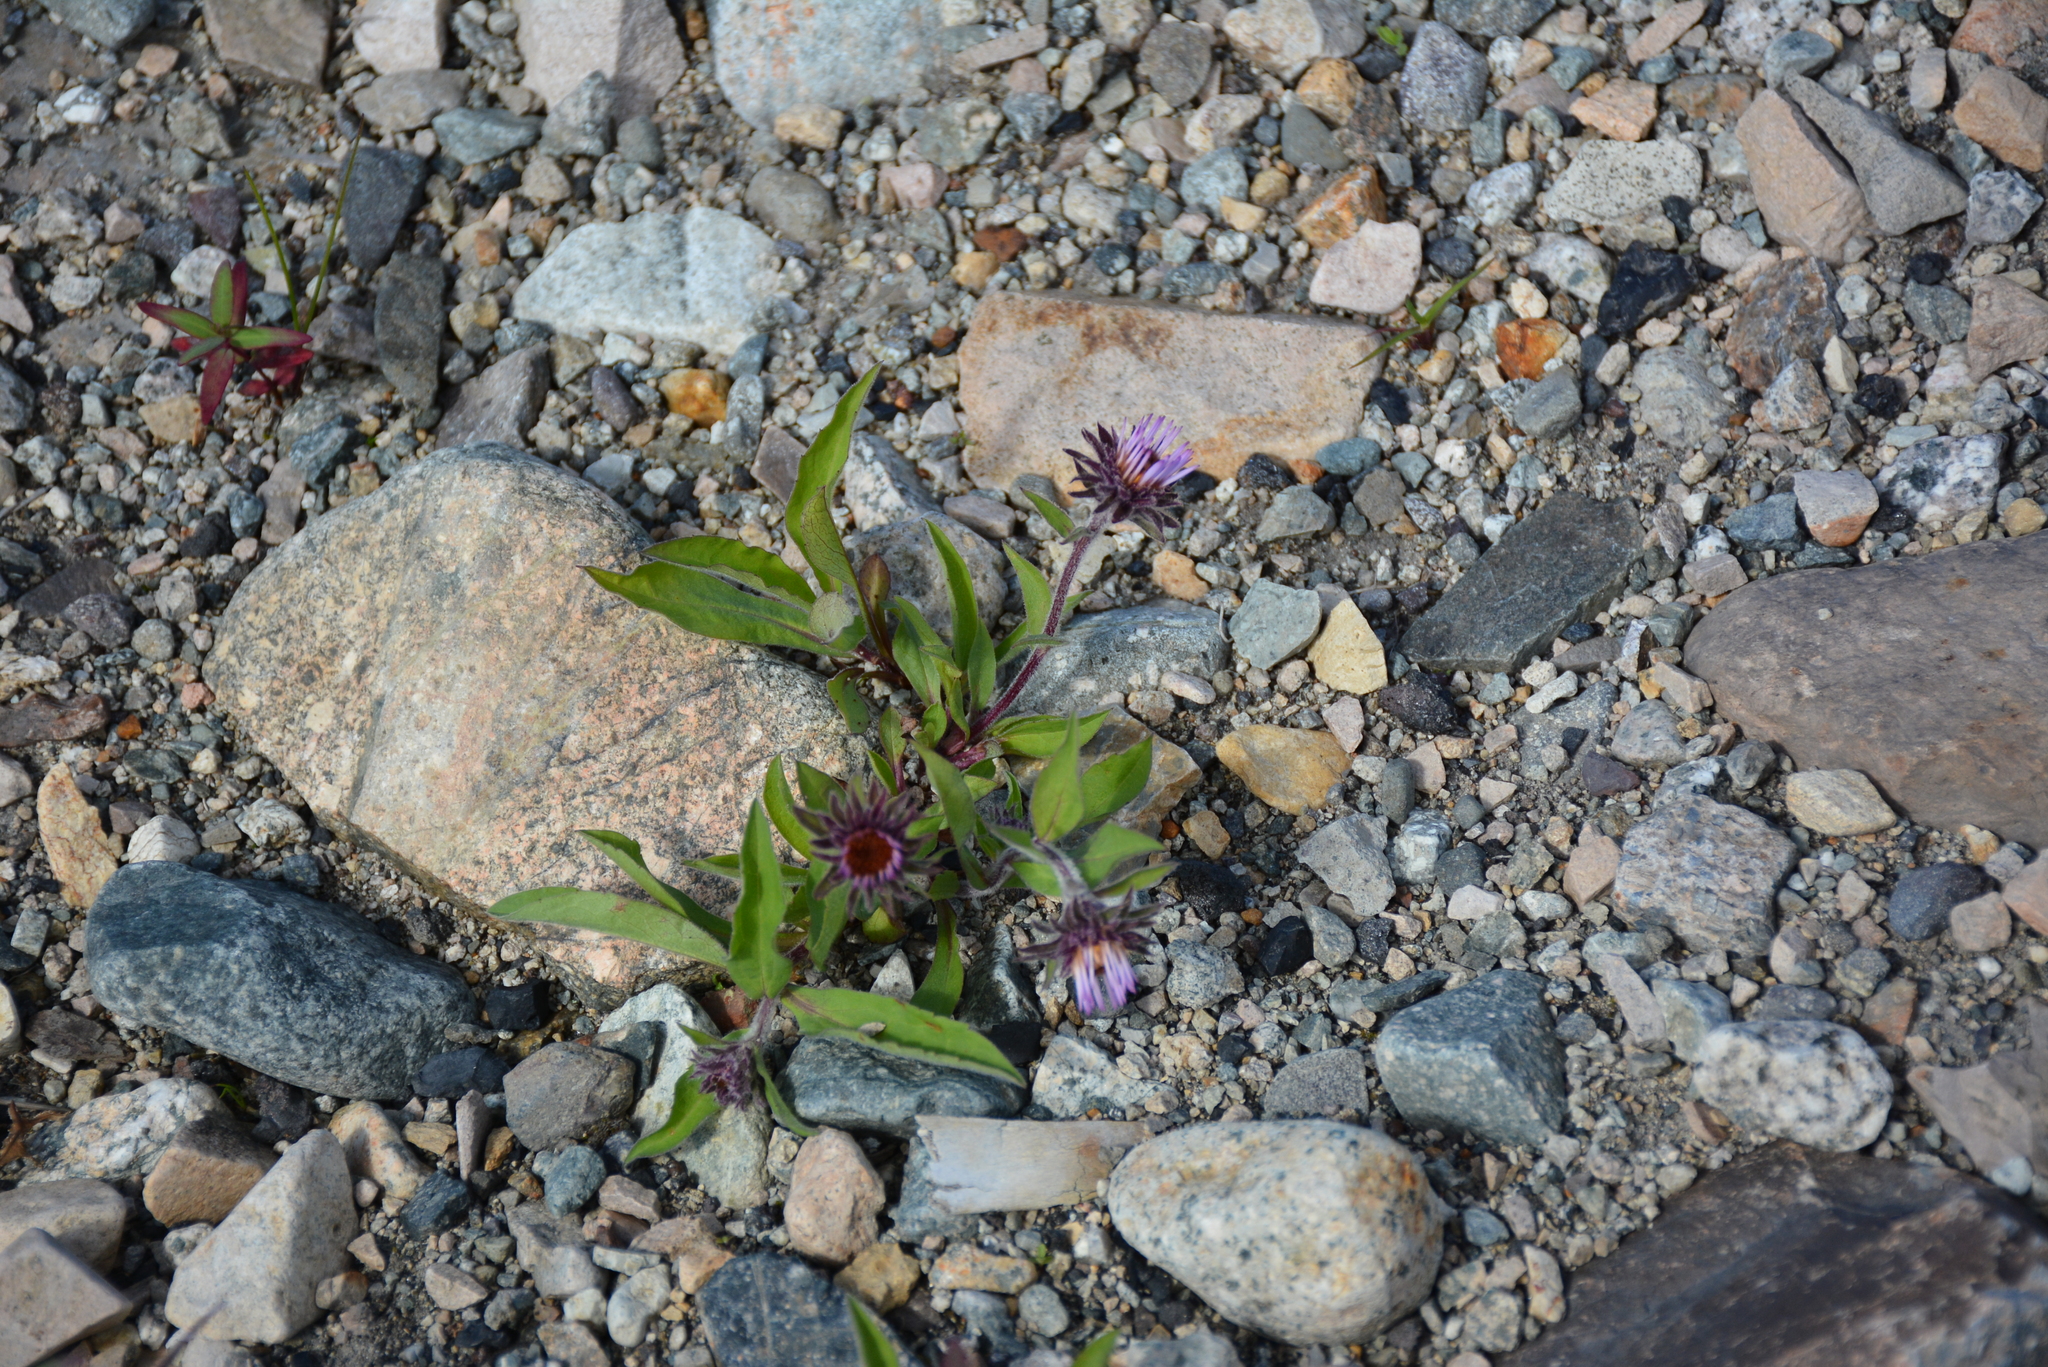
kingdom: Plantae
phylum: Tracheophyta
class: Magnoliopsida
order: Asterales
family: Asteraceae
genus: Eurybia
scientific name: Eurybia sibirica
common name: Arctic aster
